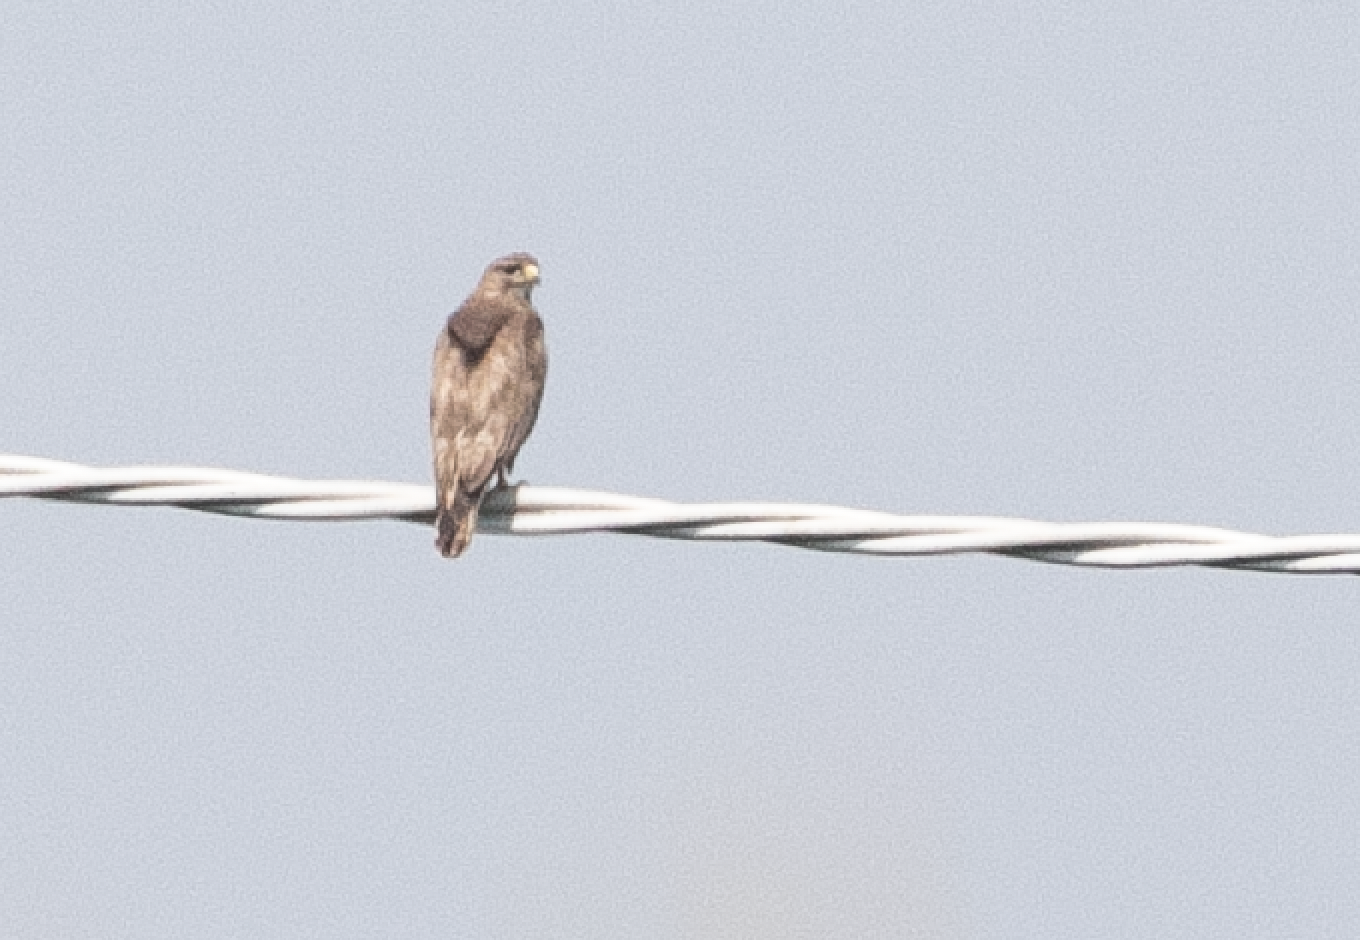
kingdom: Animalia
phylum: Chordata
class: Aves
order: Accipitriformes
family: Accipitridae
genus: Buteo
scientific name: Buteo buteo
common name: Common buzzard
